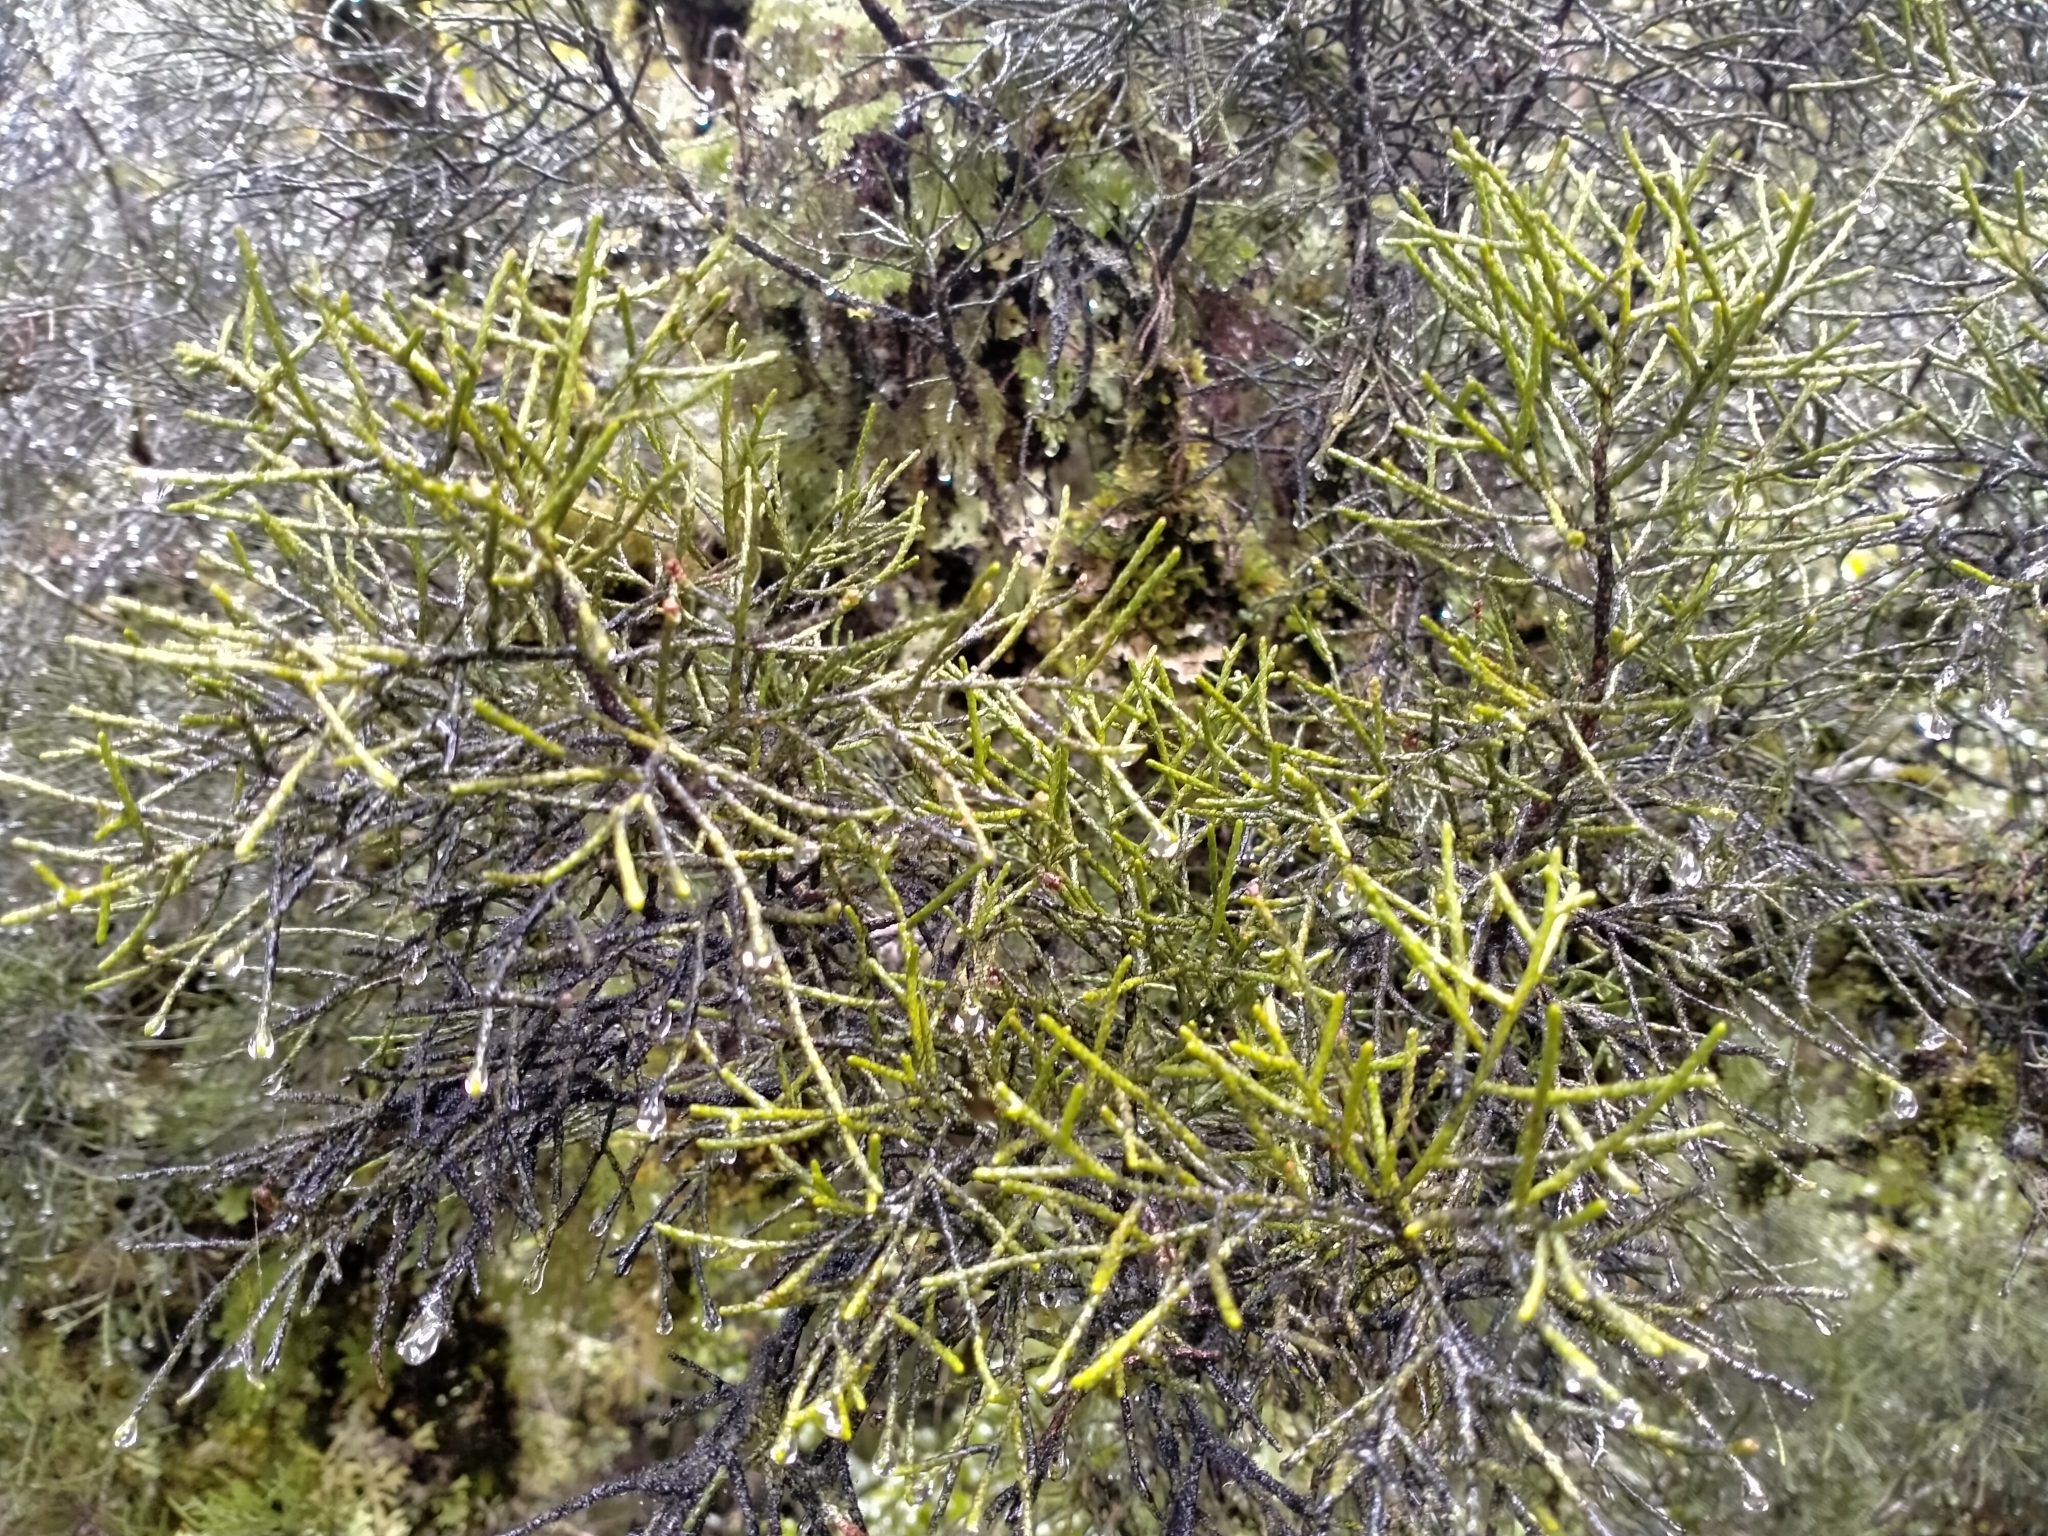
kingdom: Plantae
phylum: Tracheophyta
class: Pinopsida
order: Pinales
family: Podocarpaceae
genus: Manoao
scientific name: Manoao colensoi
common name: Silver pine
